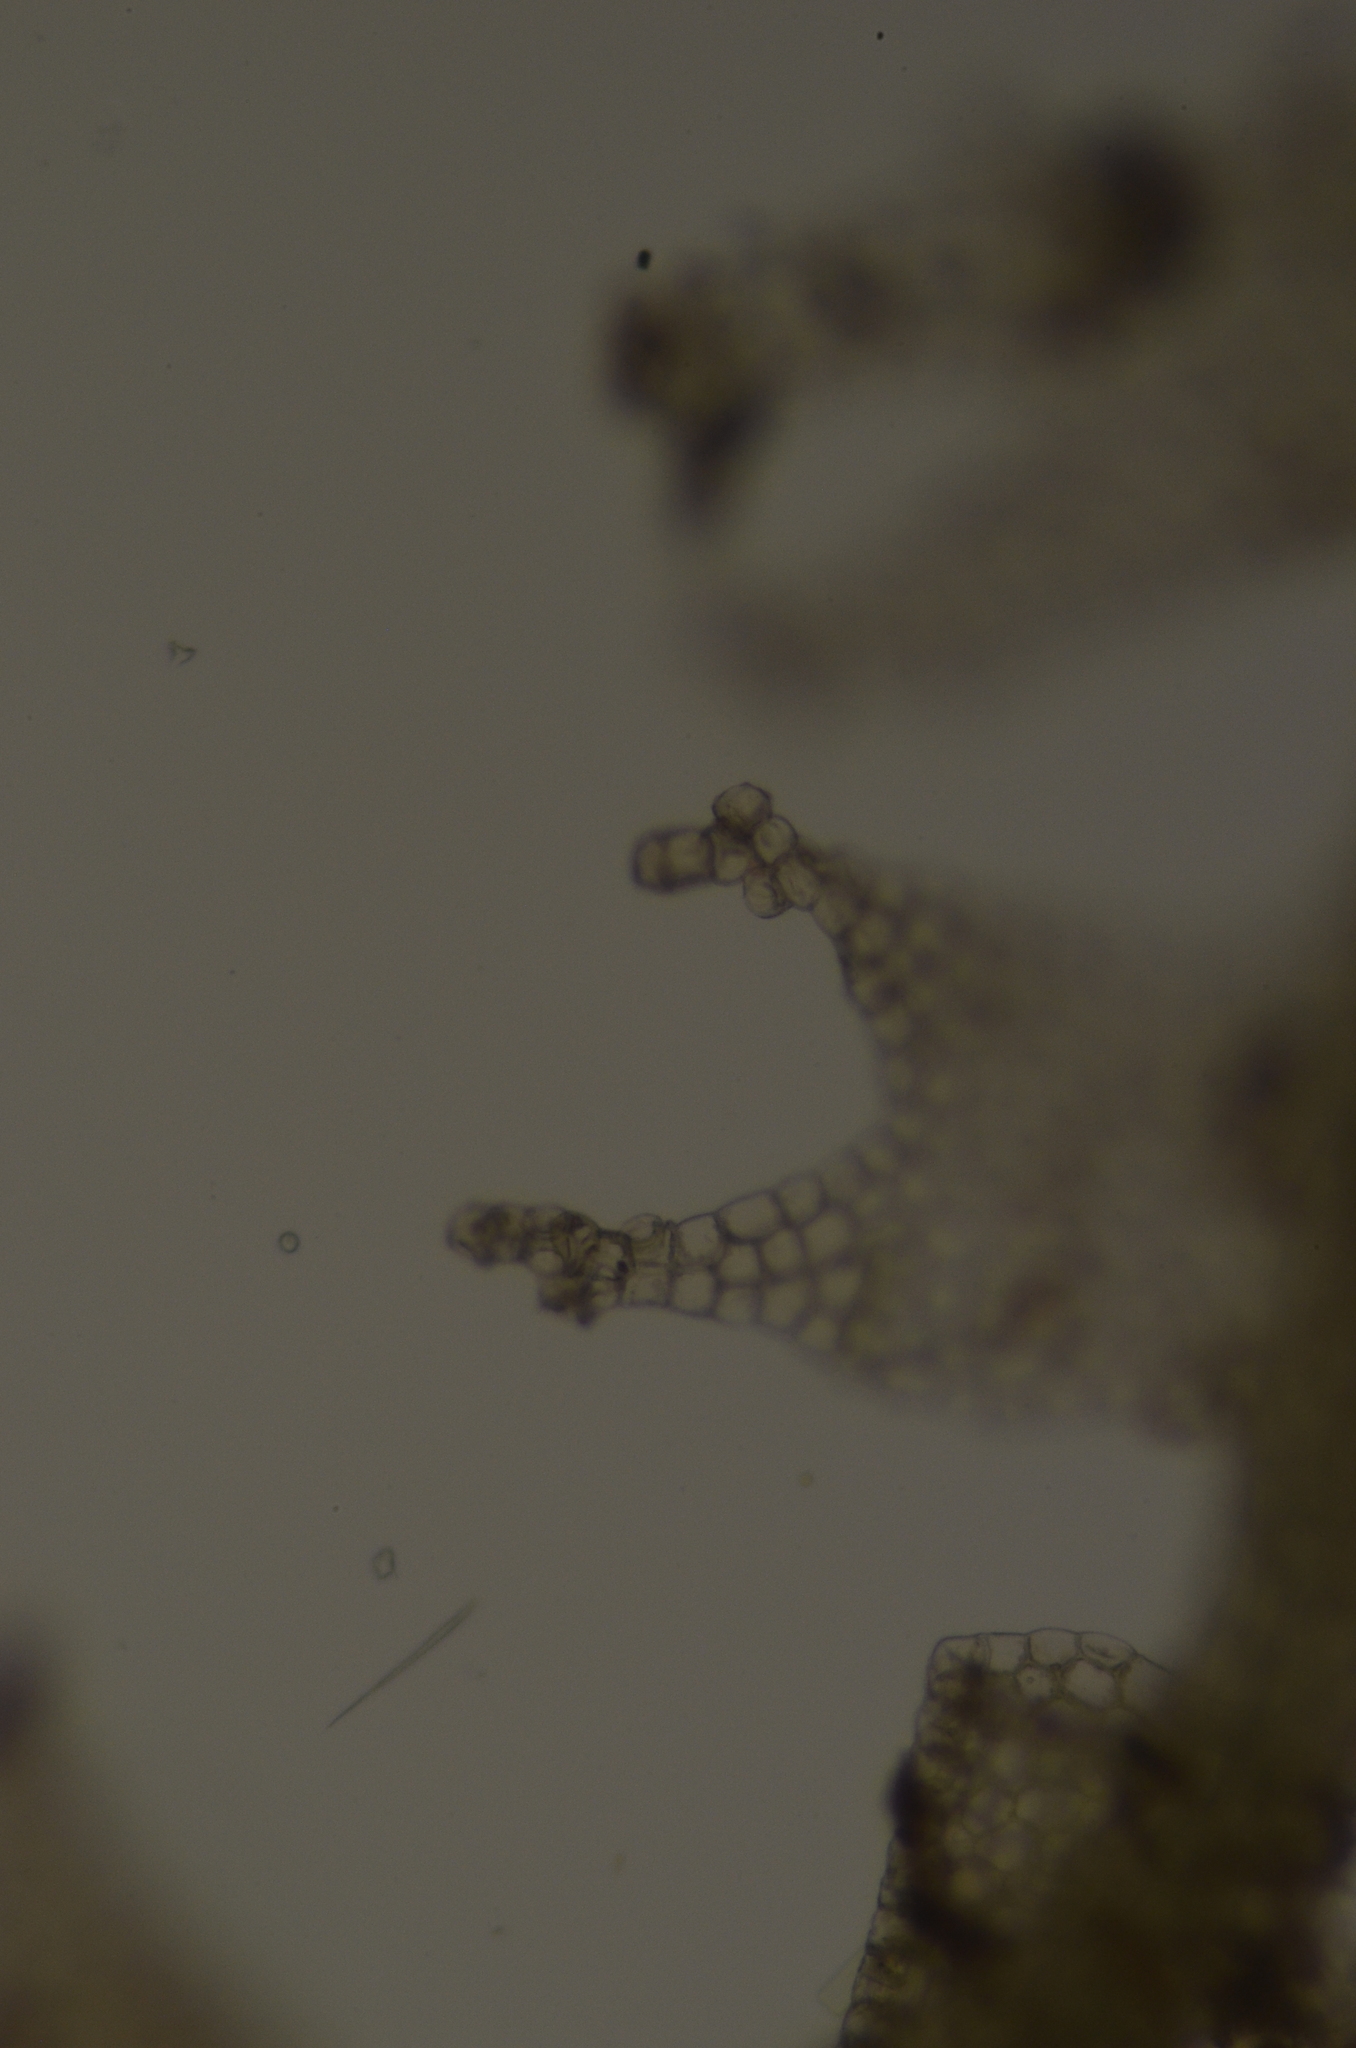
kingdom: Plantae
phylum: Marchantiophyta
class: Jungermanniopsida
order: Jungermanniales
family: Lophocoleaceae
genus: Lophocolea
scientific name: Lophocolea minor
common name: Lesser crestwort
